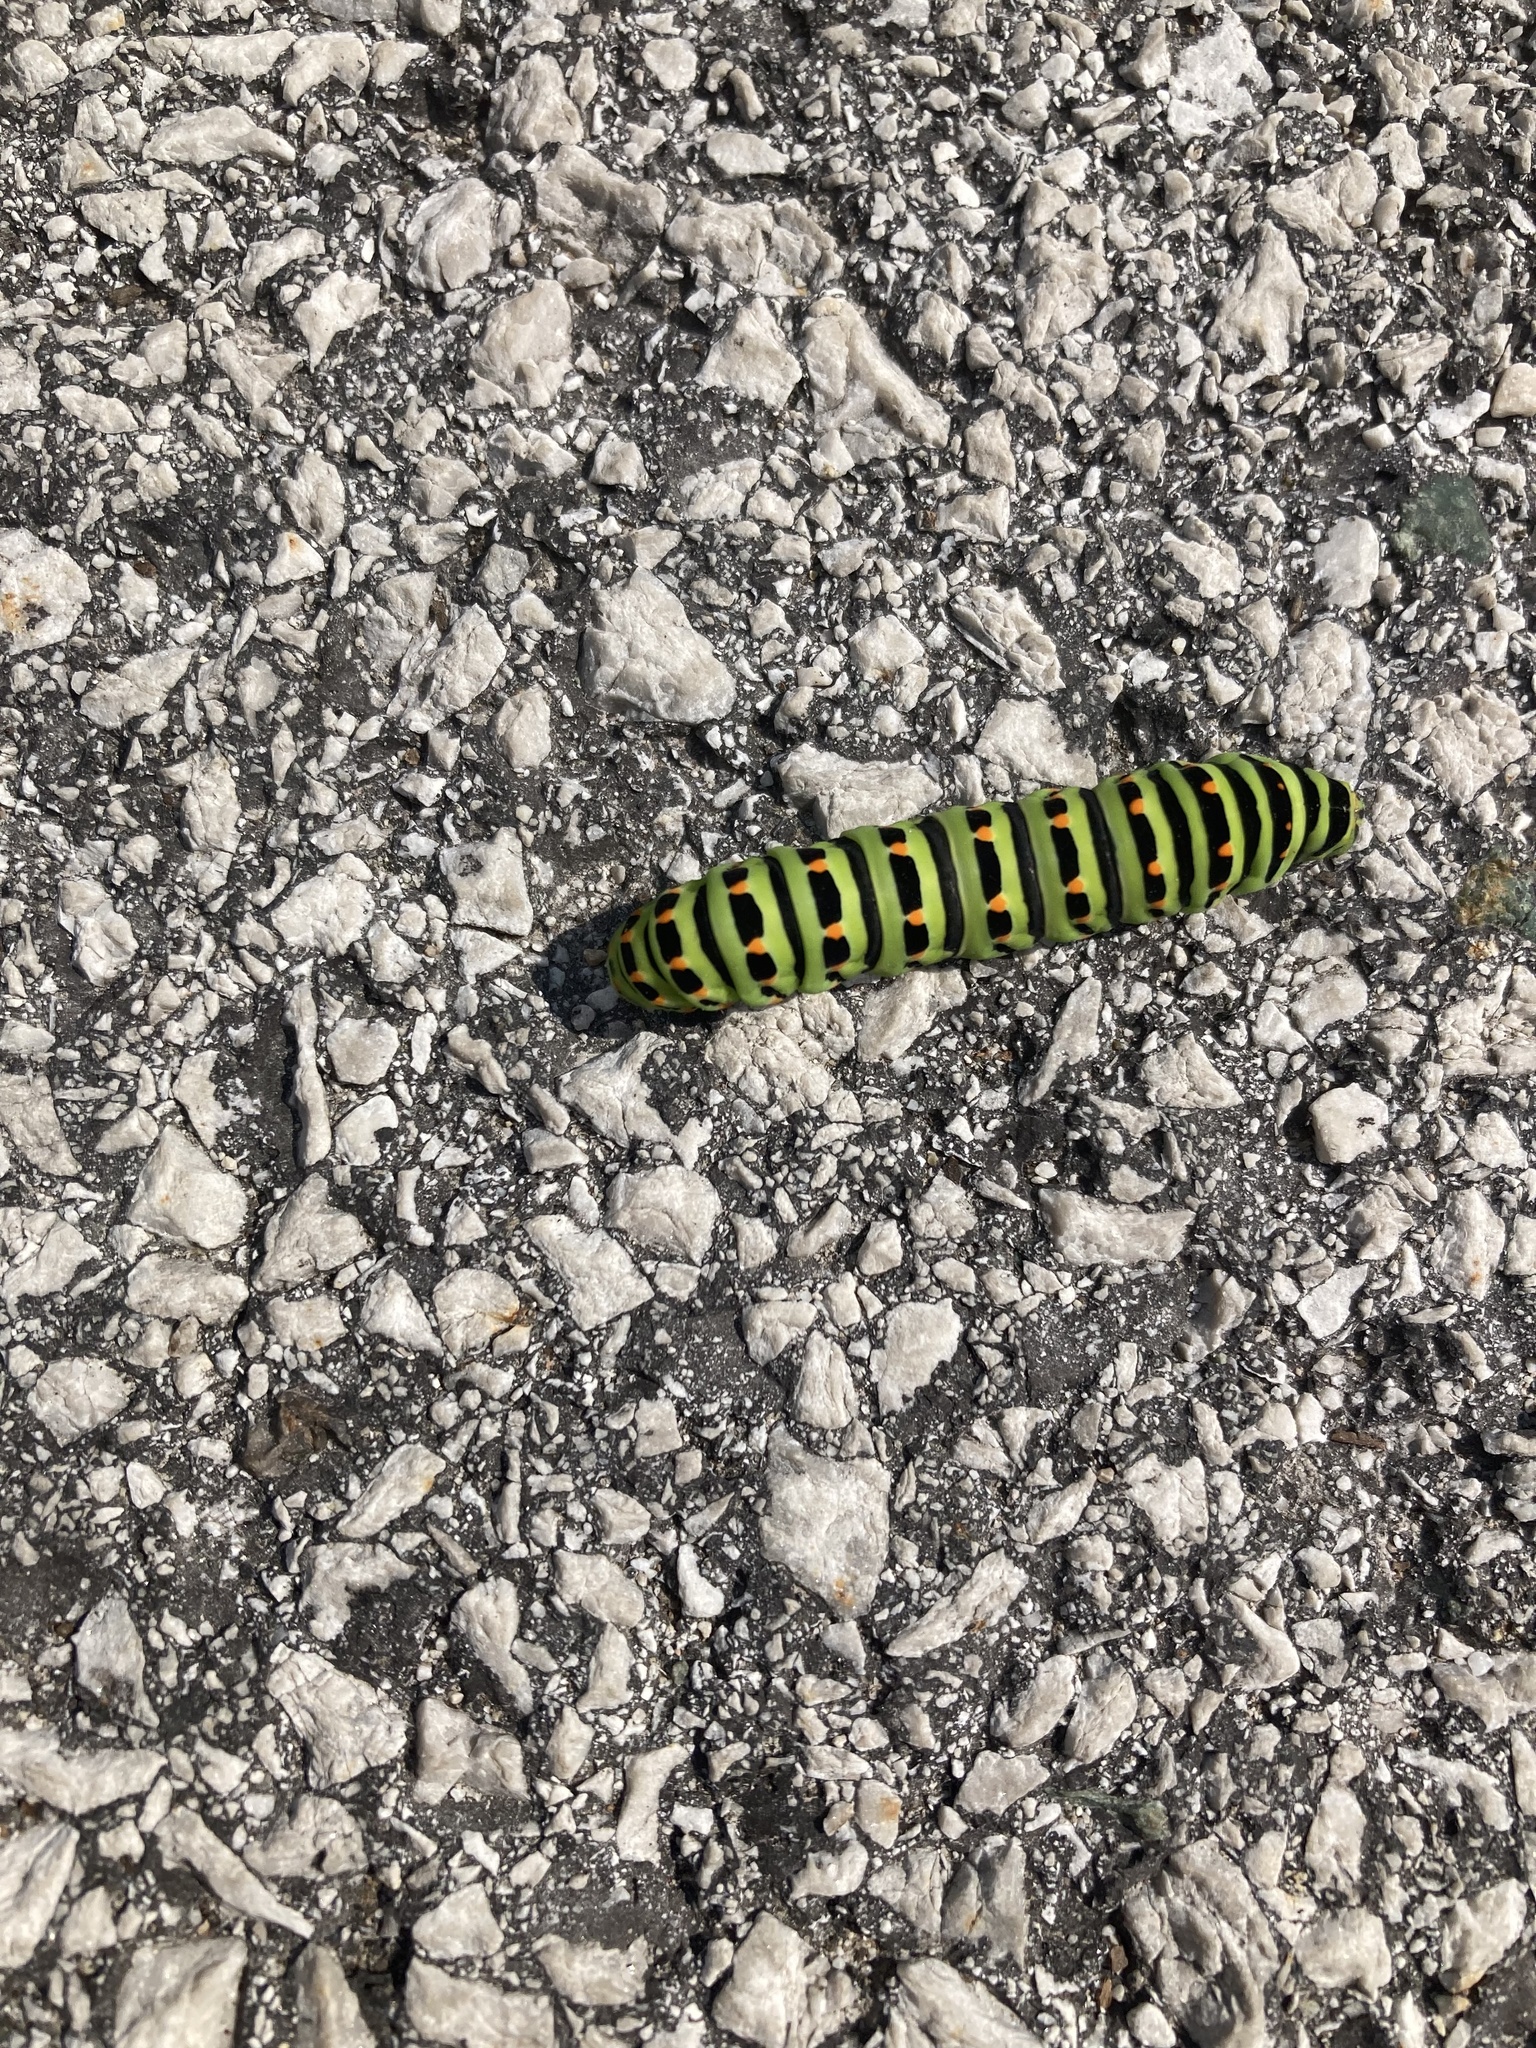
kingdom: Animalia
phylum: Arthropoda
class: Insecta
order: Lepidoptera
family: Papilionidae
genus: Papilio
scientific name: Papilio machaon
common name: Swallowtail
